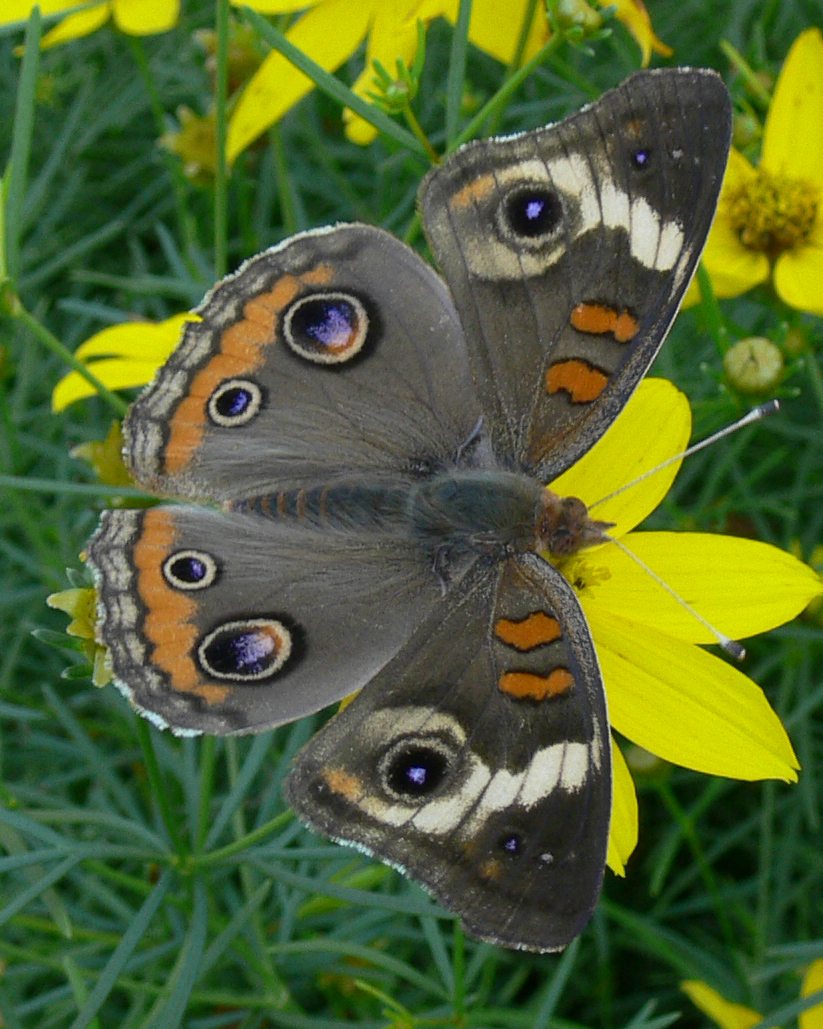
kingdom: Animalia
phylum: Arthropoda
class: Insecta
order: Lepidoptera
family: Nymphalidae
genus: Junonia
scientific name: Junonia coenia
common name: Common buckeye
